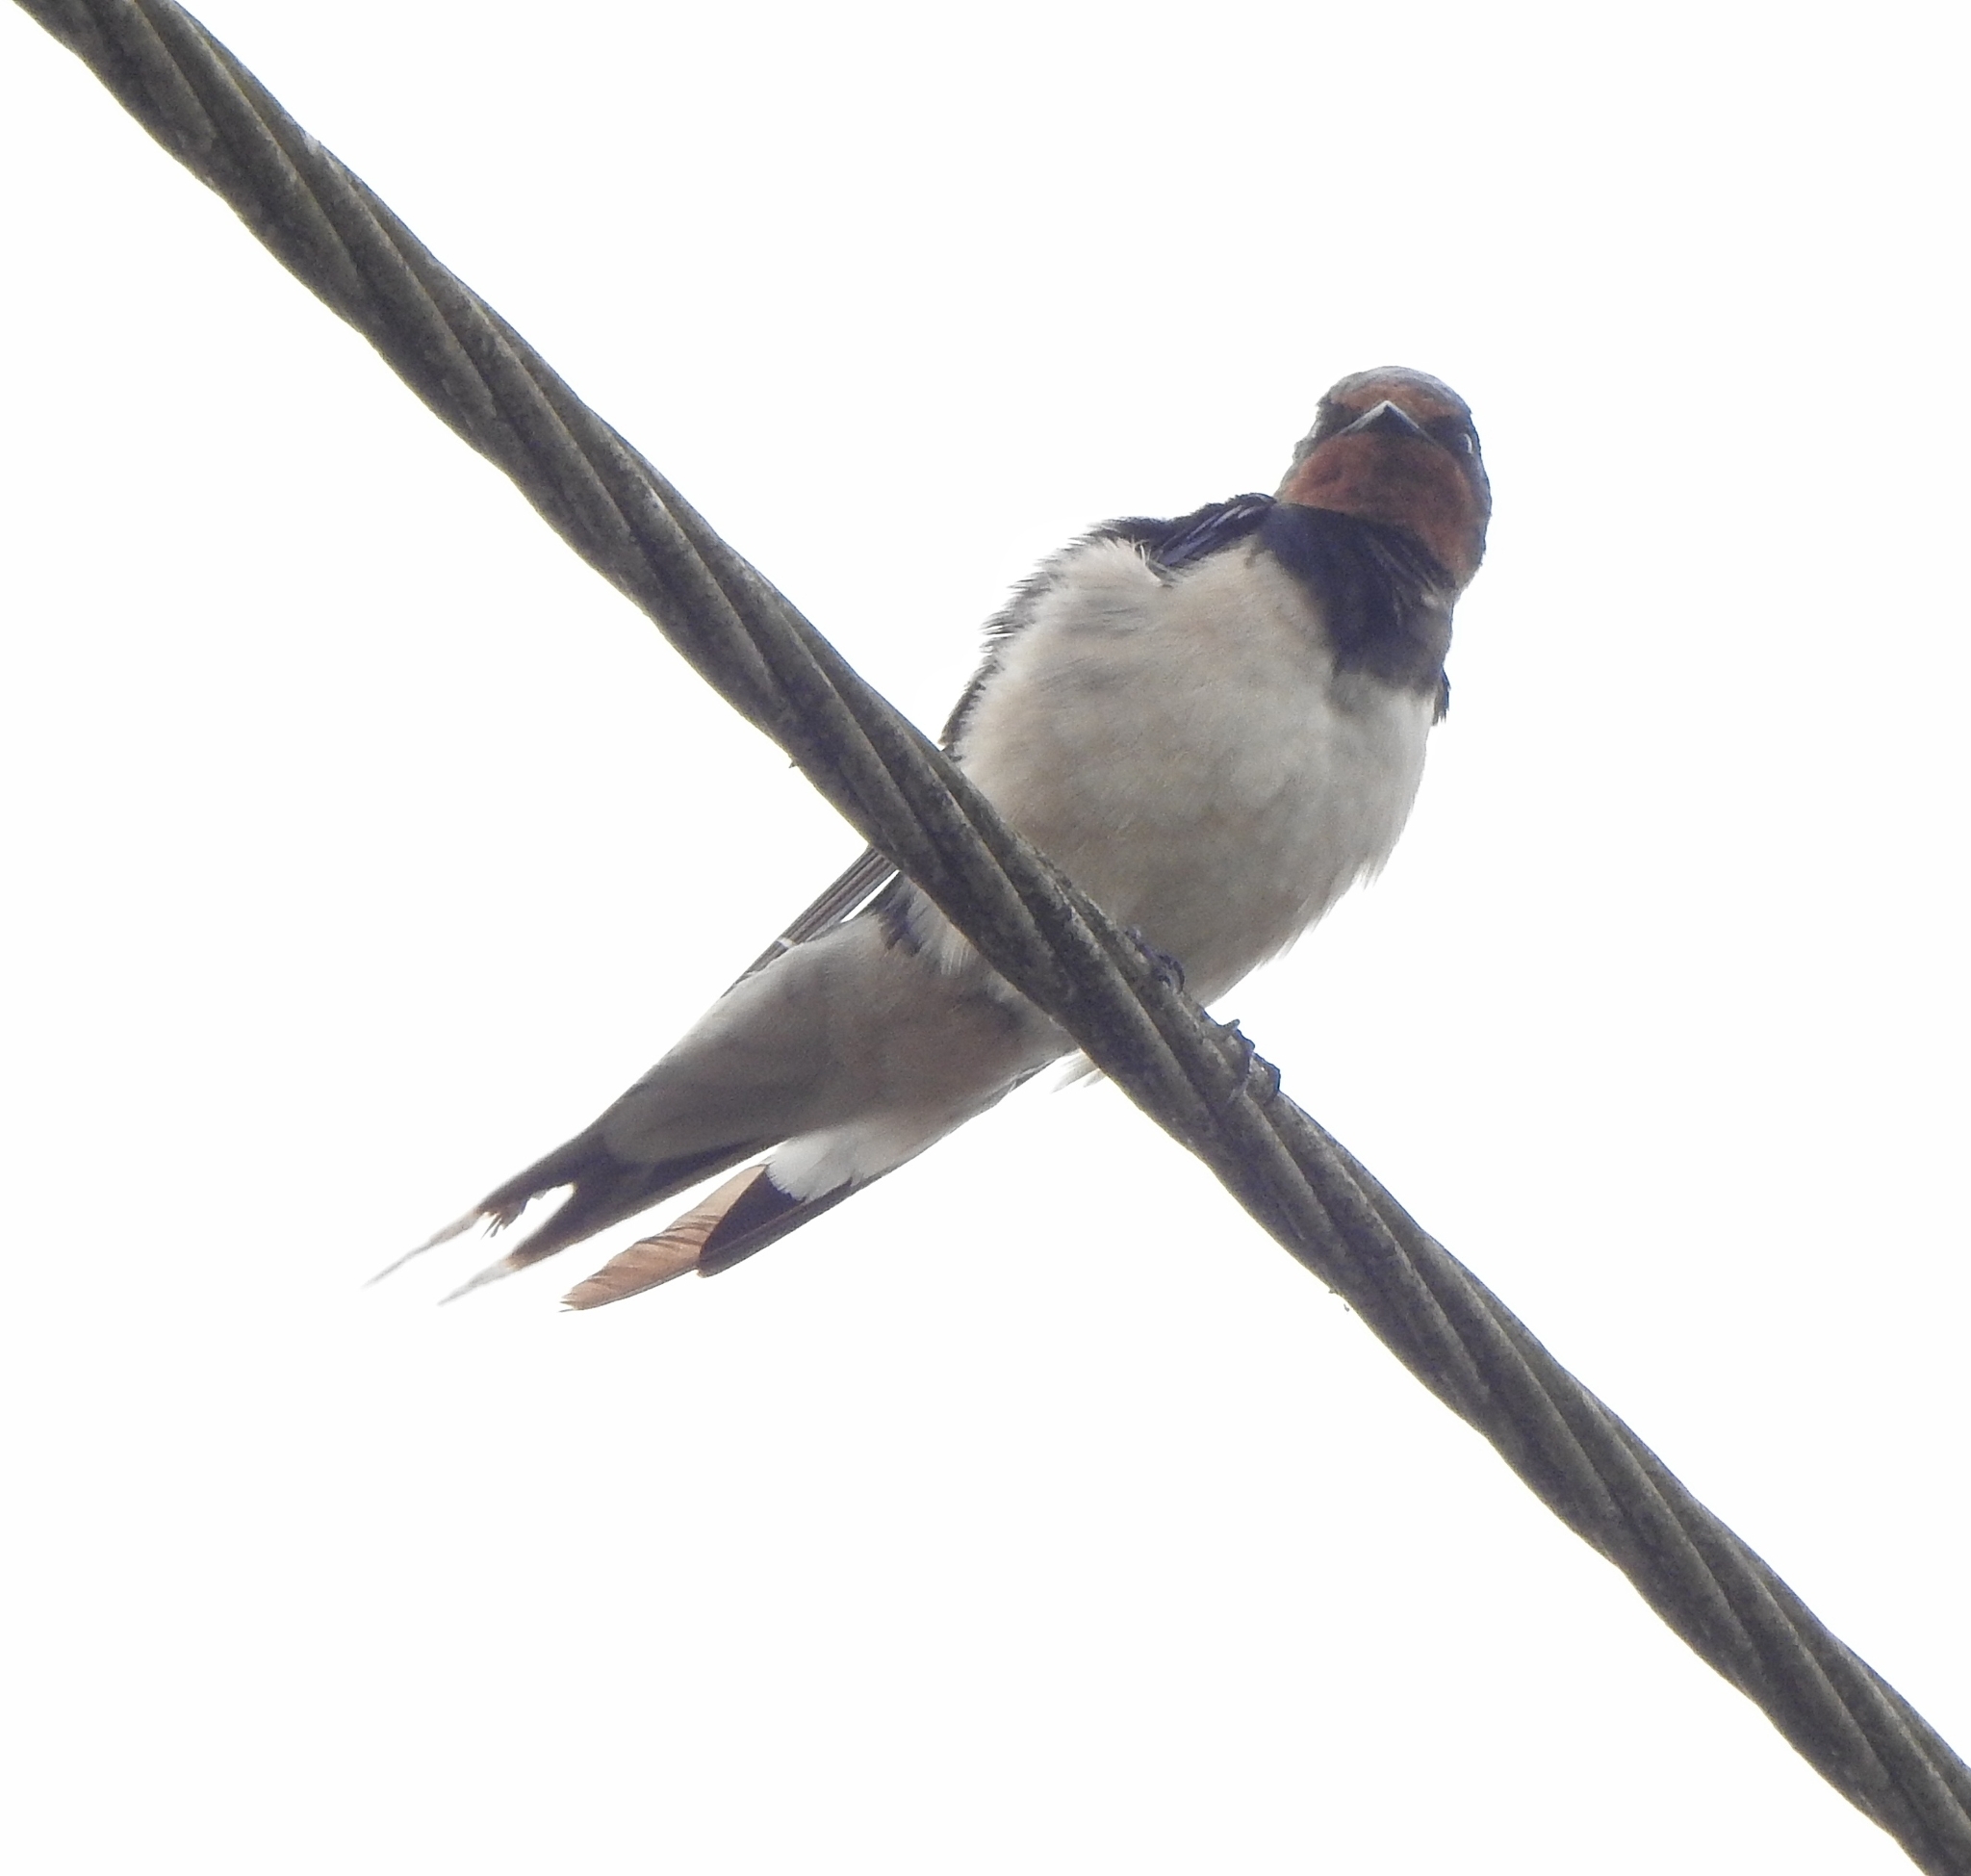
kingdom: Animalia
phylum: Chordata
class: Aves
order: Passeriformes
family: Hirundinidae
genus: Hirundo
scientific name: Hirundo rustica
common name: Barn swallow
